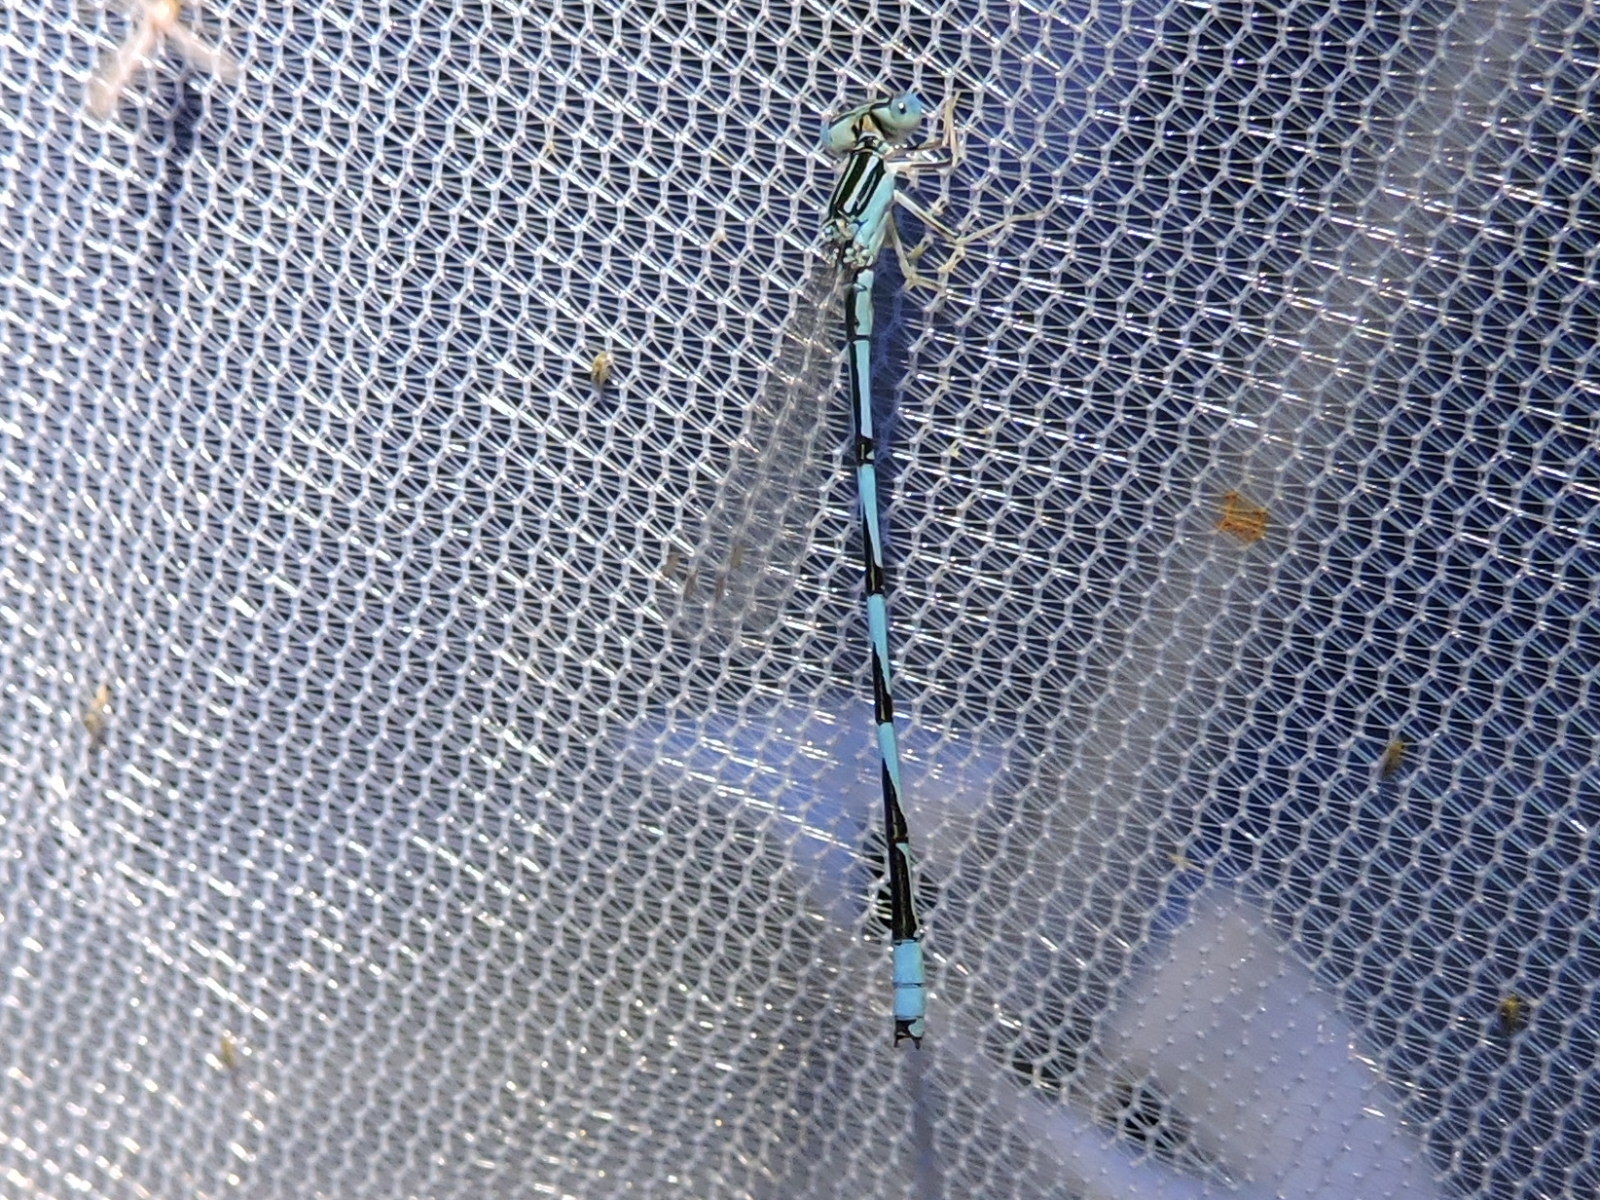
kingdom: Animalia
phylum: Arthropoda
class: Insecta
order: Odonata
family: Coenagrionidae
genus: Enallagma
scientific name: Enallagma basidens
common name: Double-striped bluet
